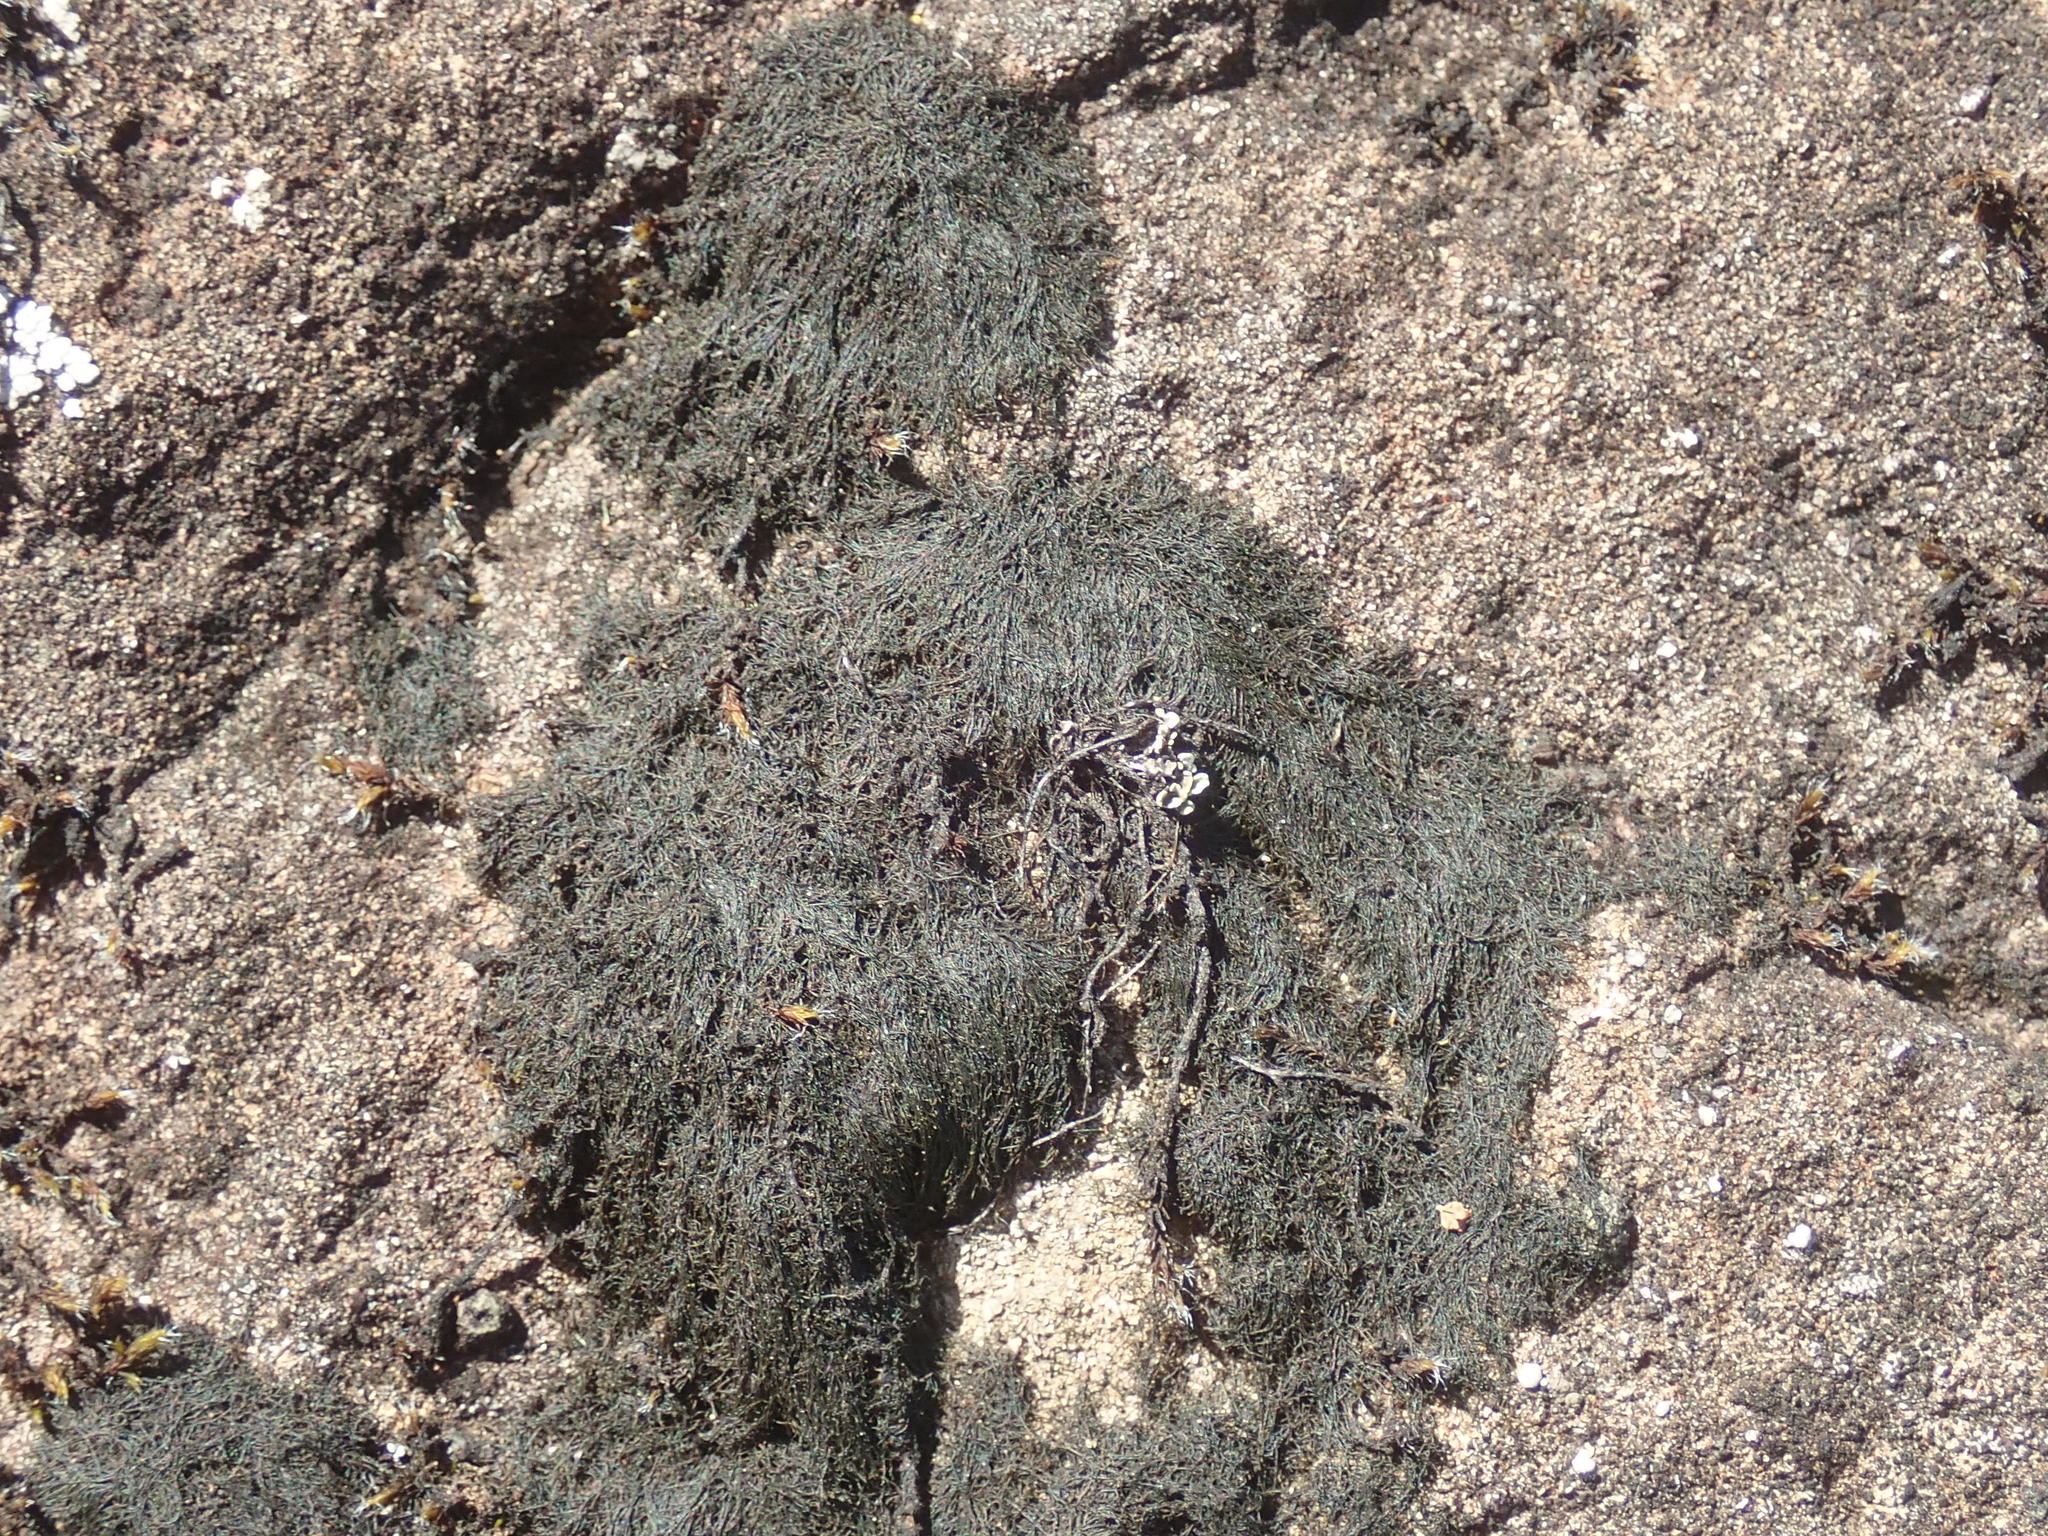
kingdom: Fungi
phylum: Ascomycota
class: Lecanoromycetes
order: Lecanorales
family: Parmeliaceae
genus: Pseudephebe
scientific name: Pseudephebe pubescens
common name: Fine rockwool lichen
